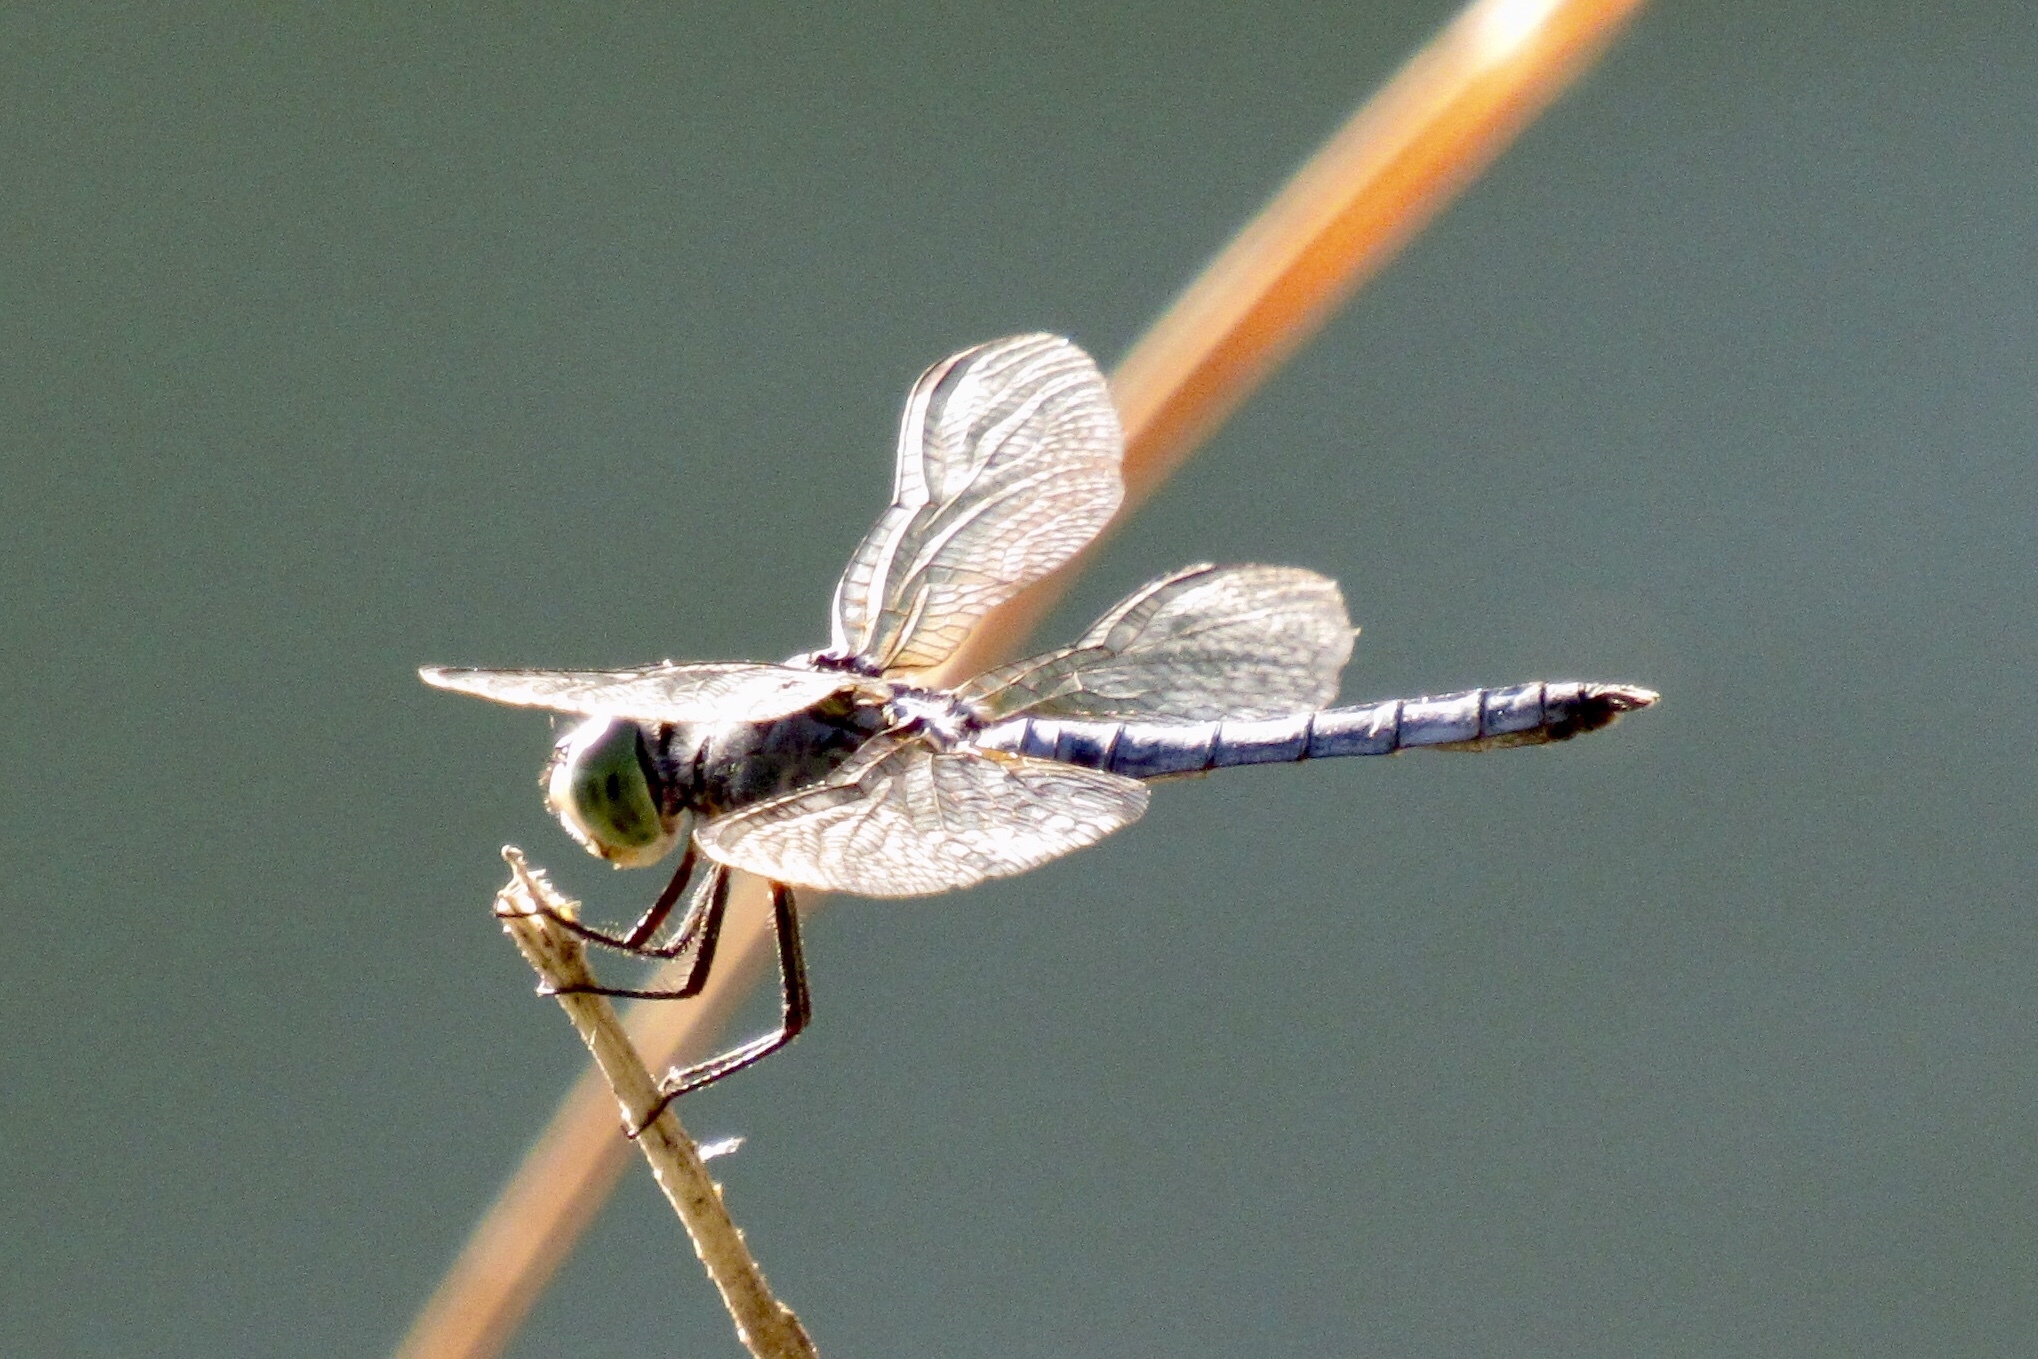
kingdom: Animalia
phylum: Arthropoda
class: Insecta
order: Odonata
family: Libellulidae
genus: Pachydiplax
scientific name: Pachydiplax longipennis
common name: Blue dasher
